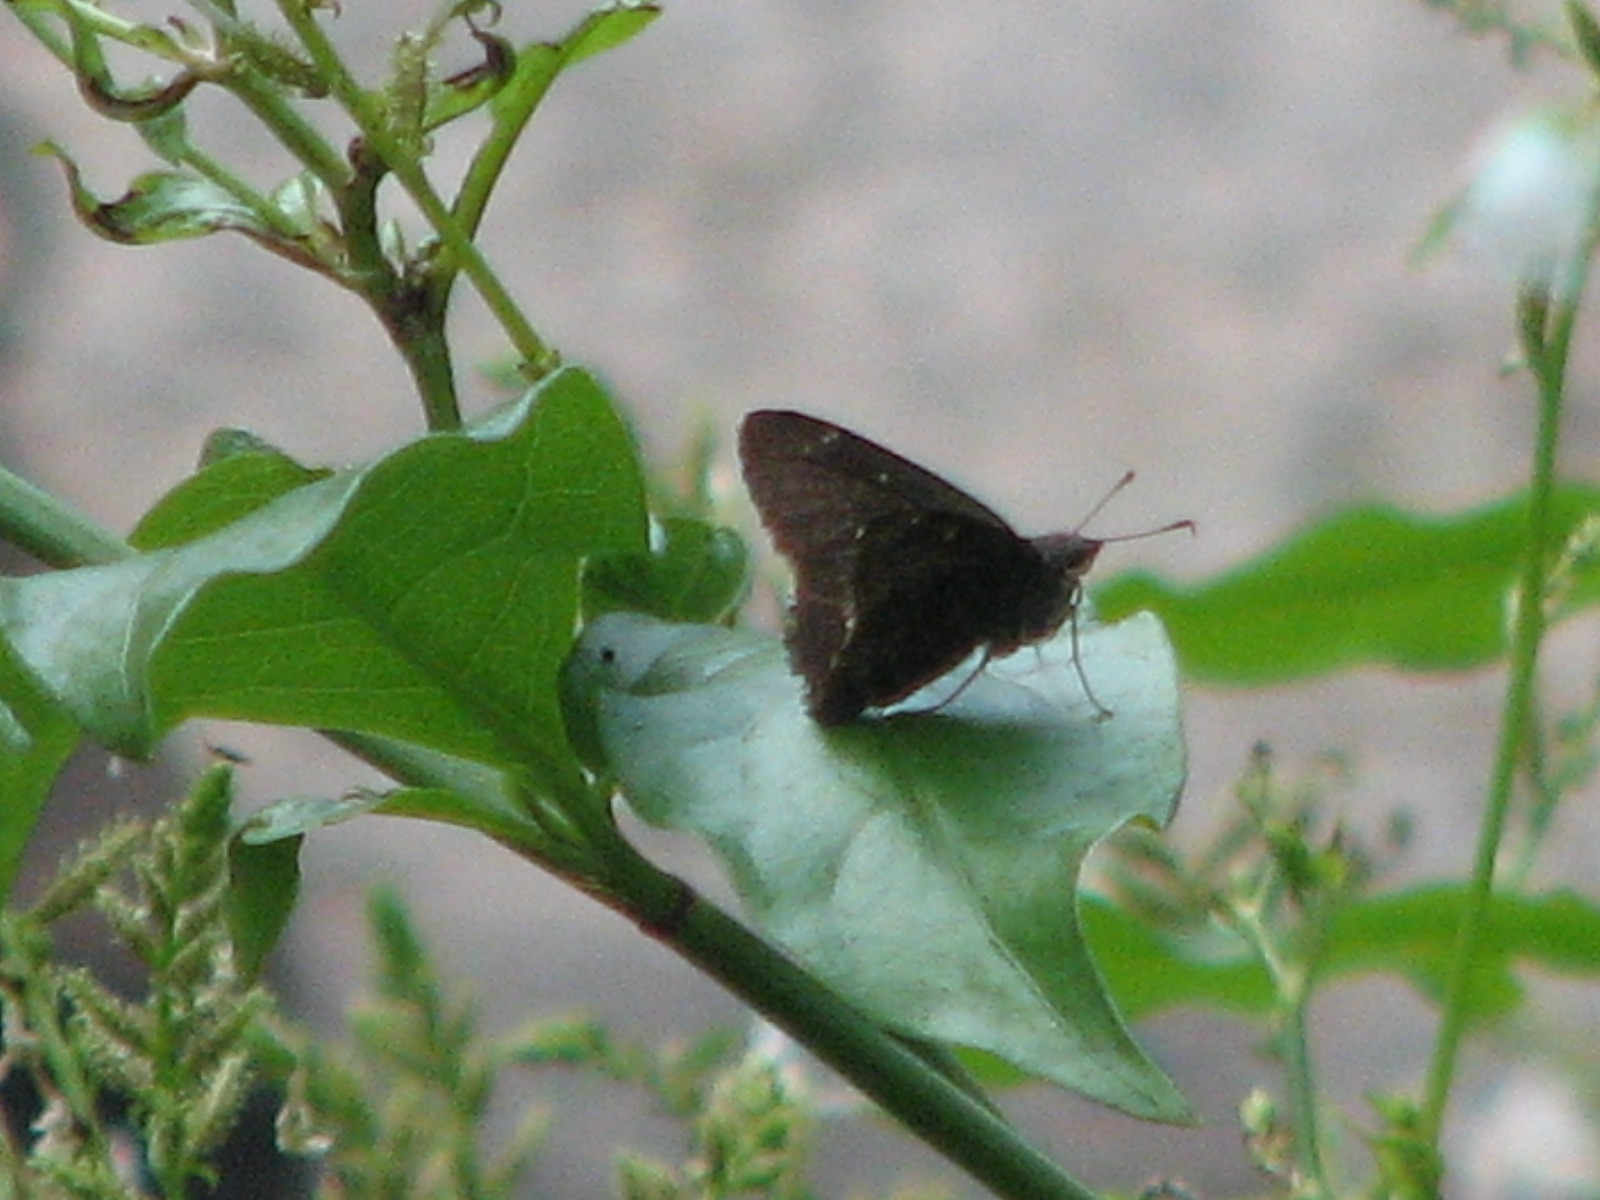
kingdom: Animalia
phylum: Arthropoda
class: Insecta
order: Lepidoptera
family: Hesperiidae
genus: Caicella
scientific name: Caicella calchas
